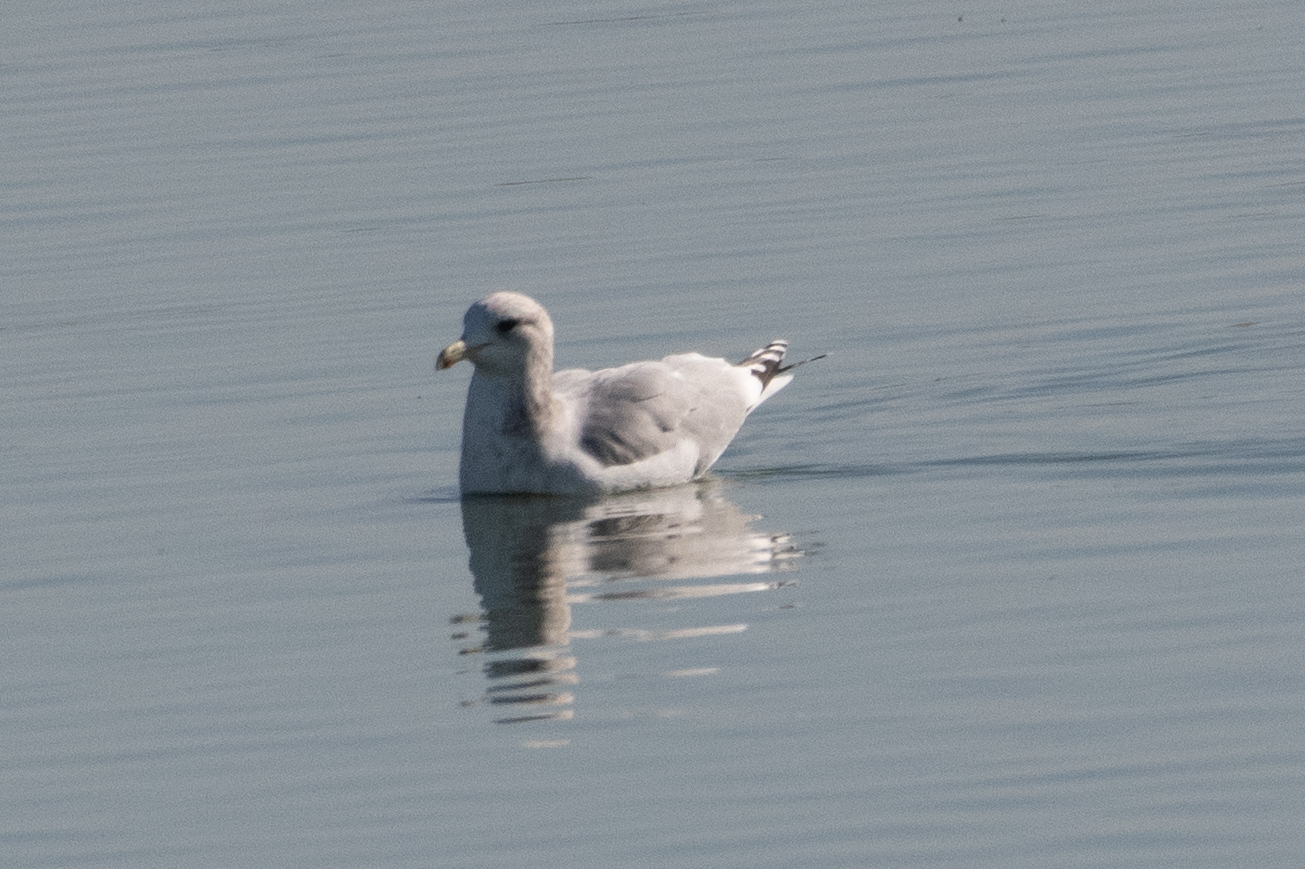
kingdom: Animalia
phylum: Chordata
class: Aves
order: Charadriiformes
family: Laridae
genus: Larus
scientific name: Larus californicus
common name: California gull
